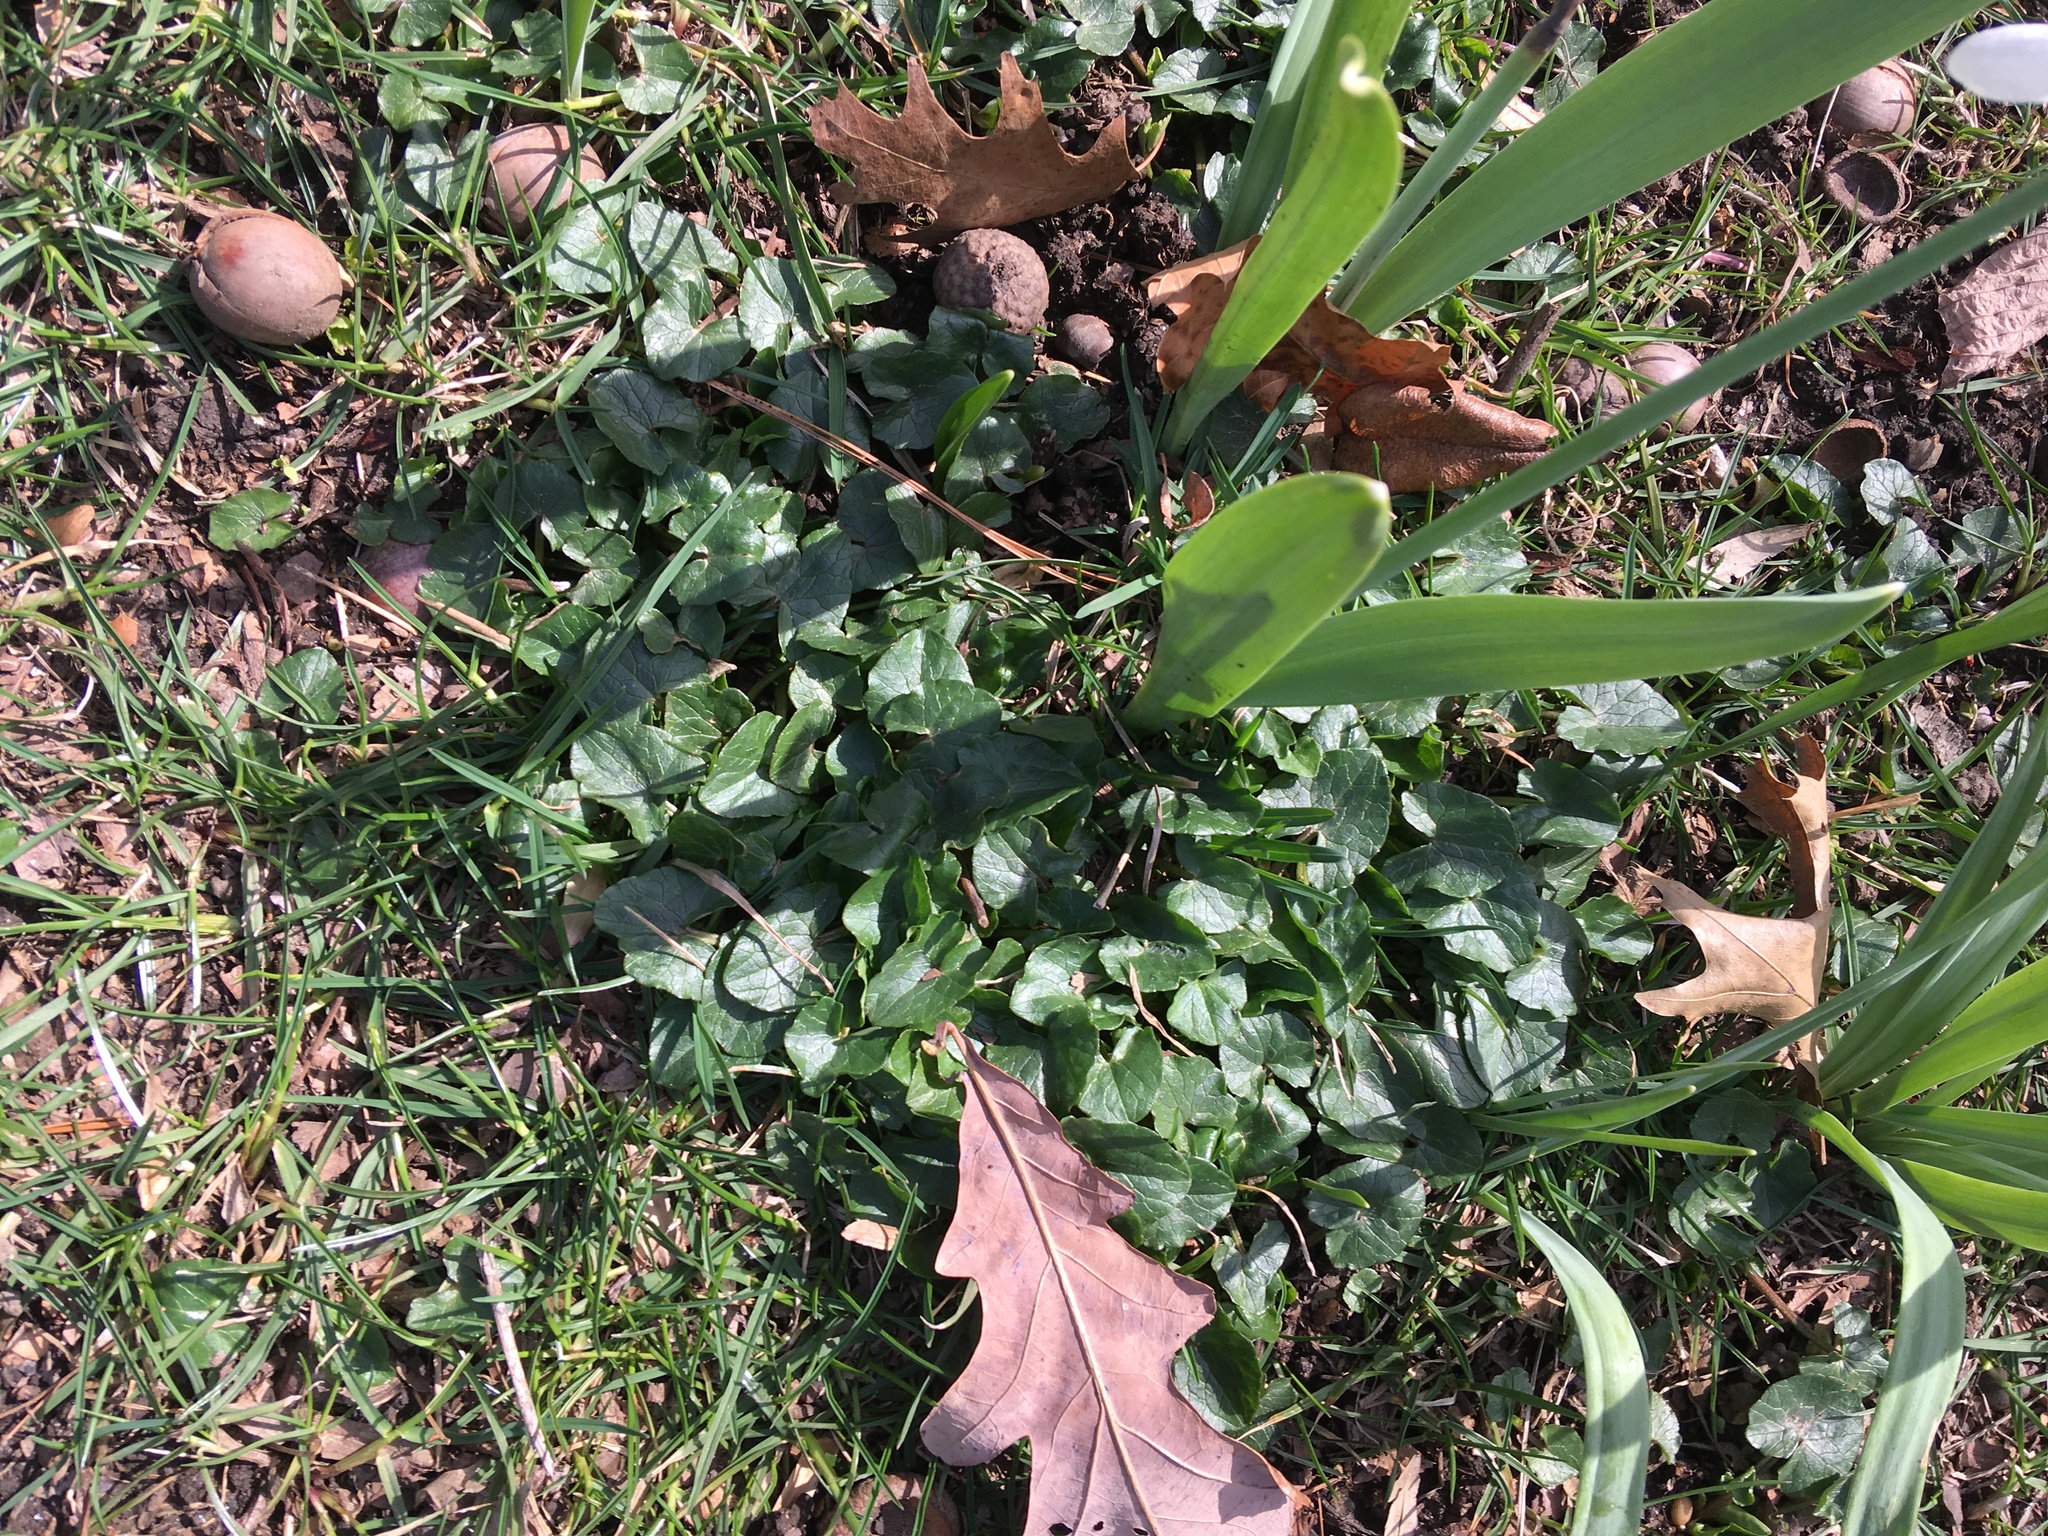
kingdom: Plantae
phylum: Tracheophyta
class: Magnoliopsida
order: Ranunculales
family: Ranunculaceae
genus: Ficaria
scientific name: Ficaria verna
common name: Lesser celandine
